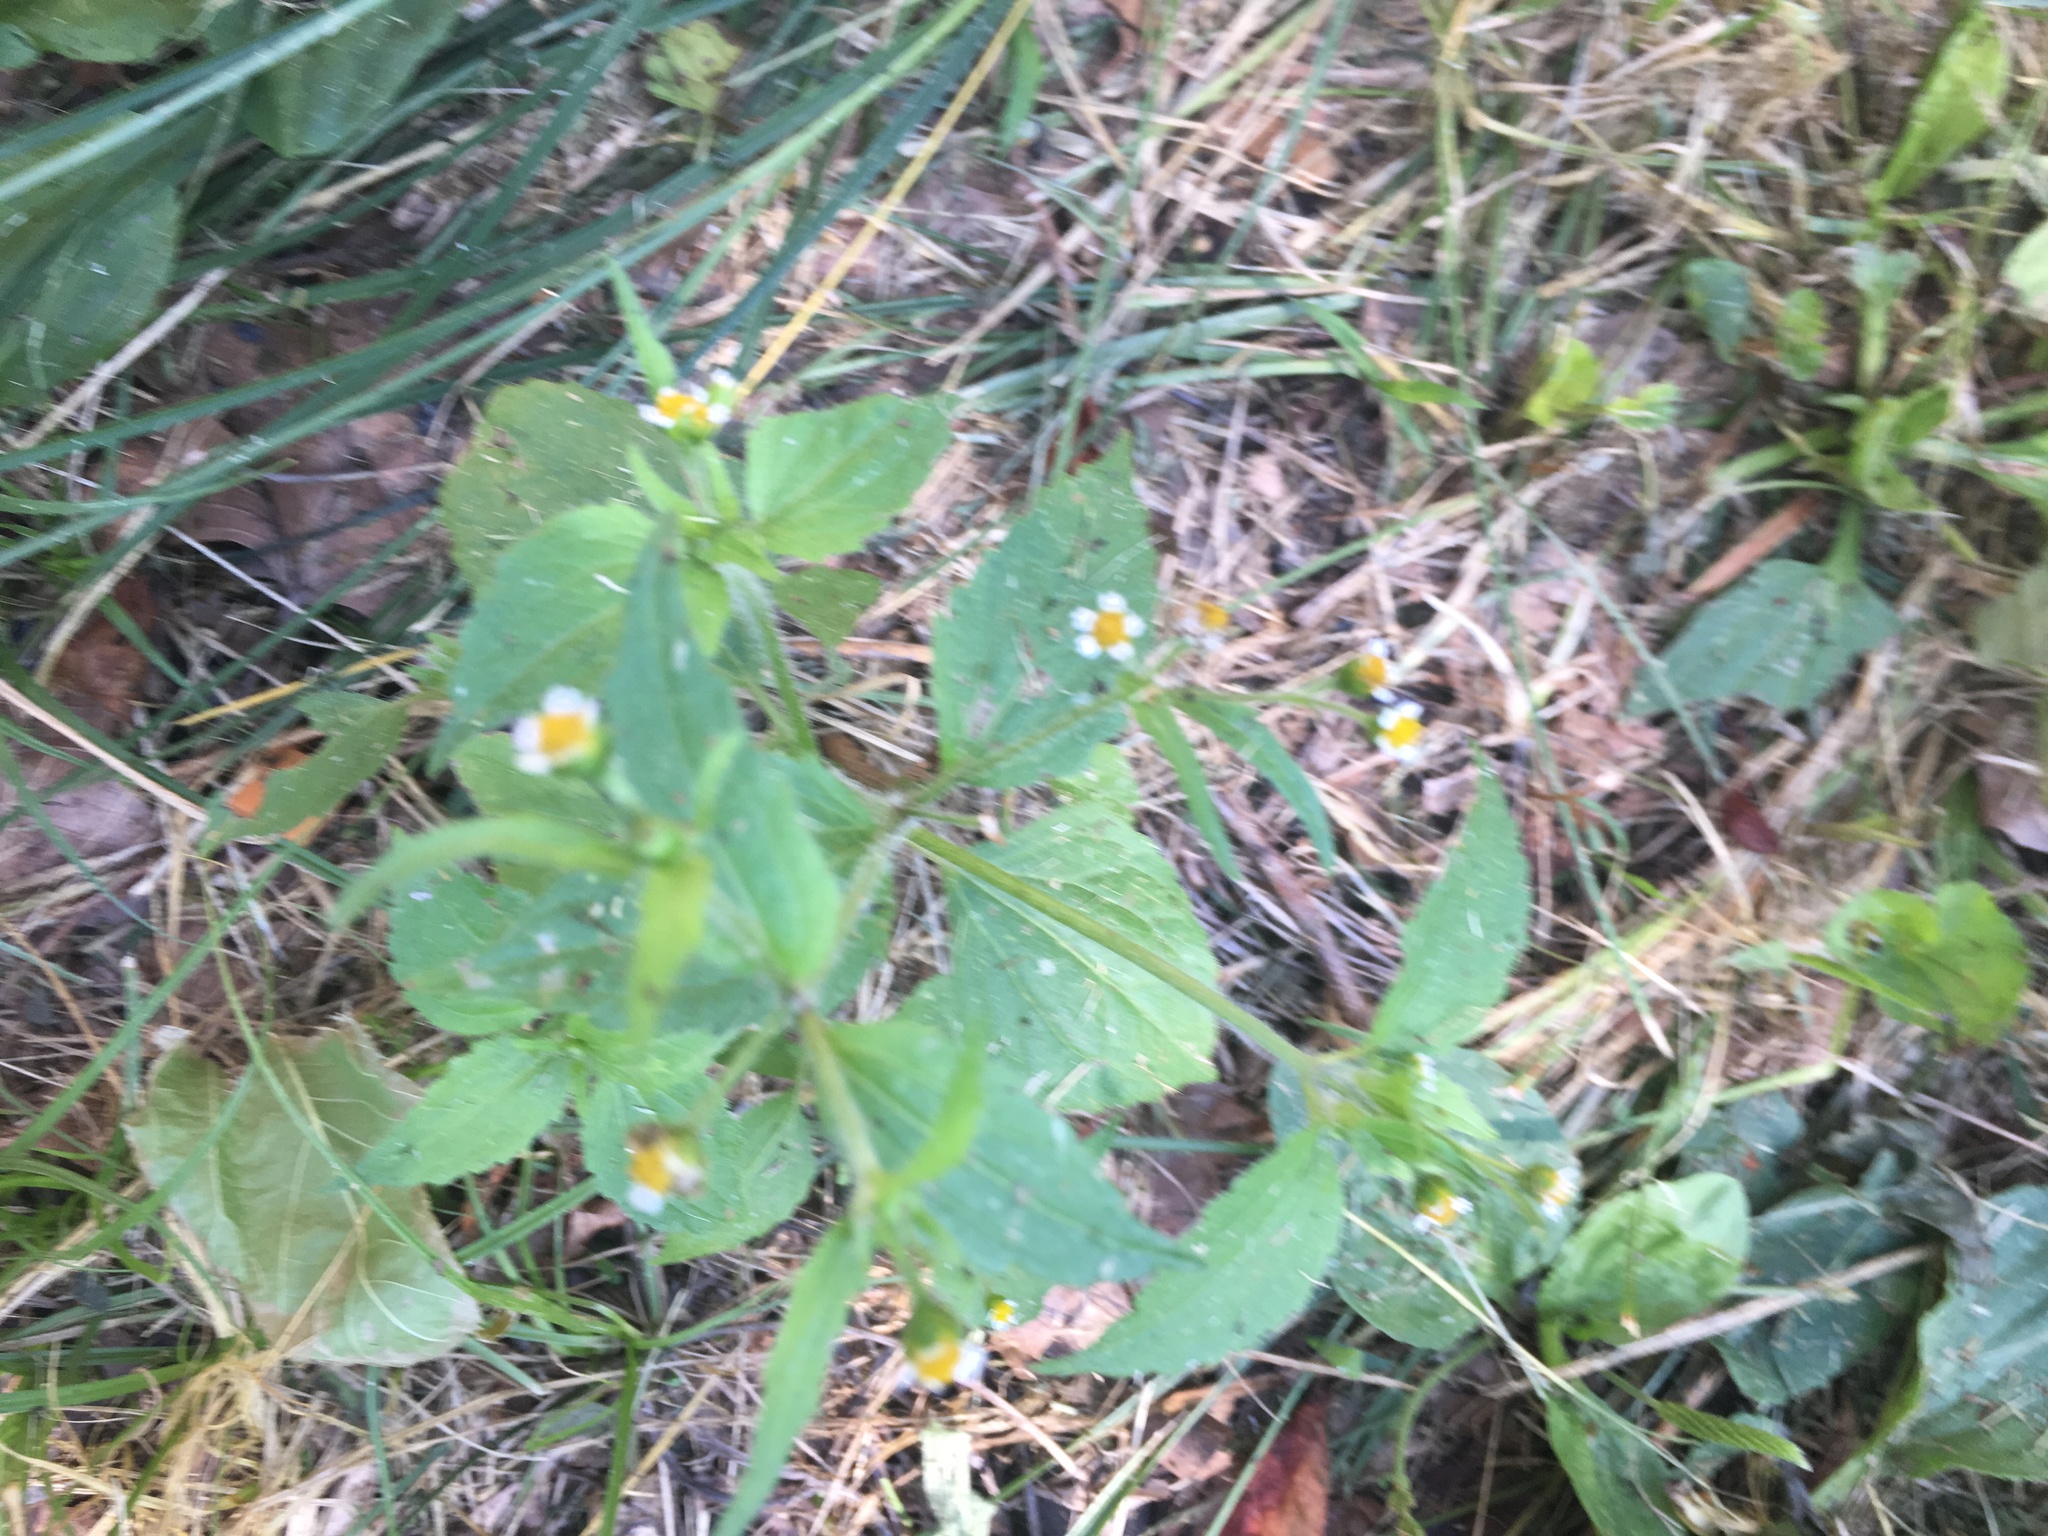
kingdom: Plantae
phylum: Tracheophyta
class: Magnoliopsida
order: Asterales
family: Asteraceae
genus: Galinsoga
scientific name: Galinsoga quadriradiata
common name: Shaggy soldier
